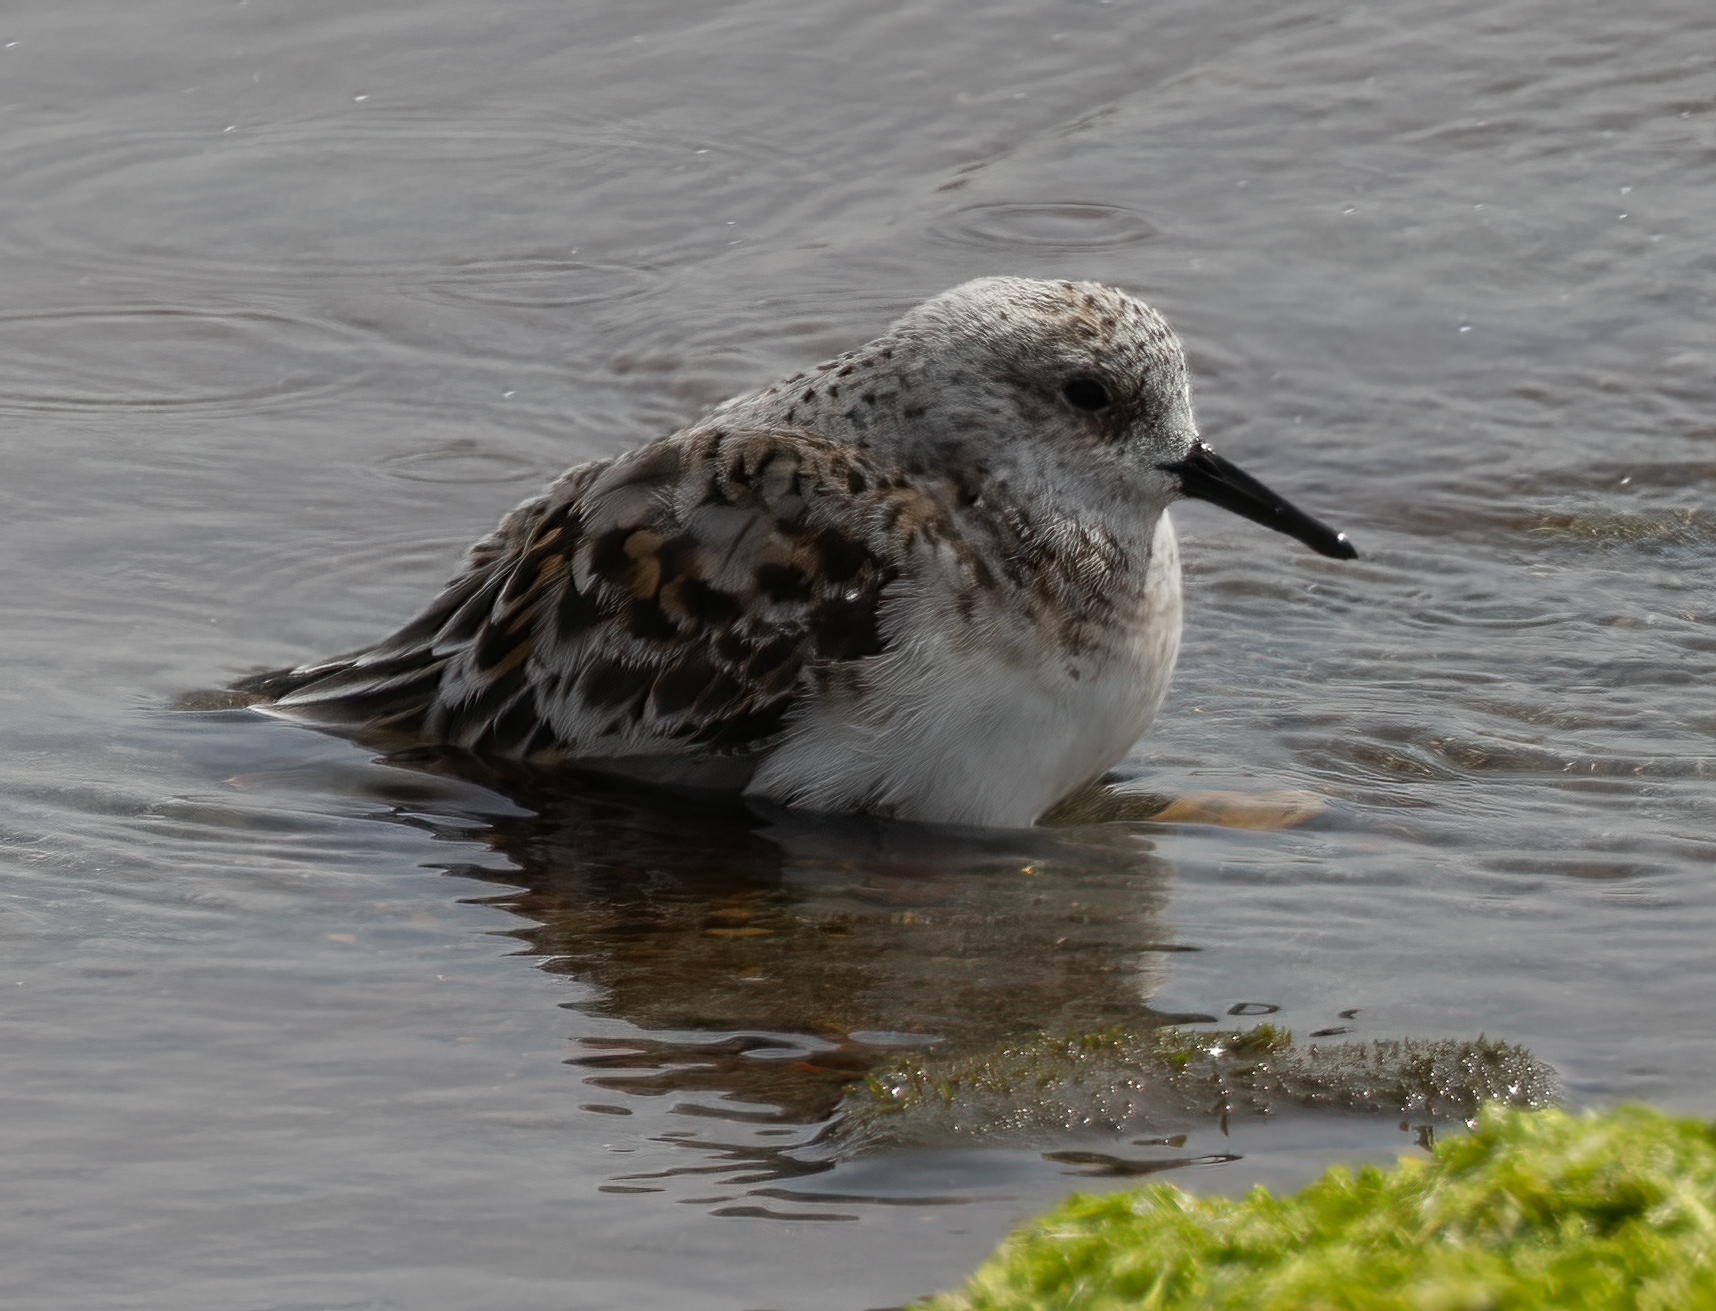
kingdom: Animalia
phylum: Chordata
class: Aves
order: Charadriiformes
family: Scolopacidae
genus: Calidris
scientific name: Calidris alba
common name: Sanderling
